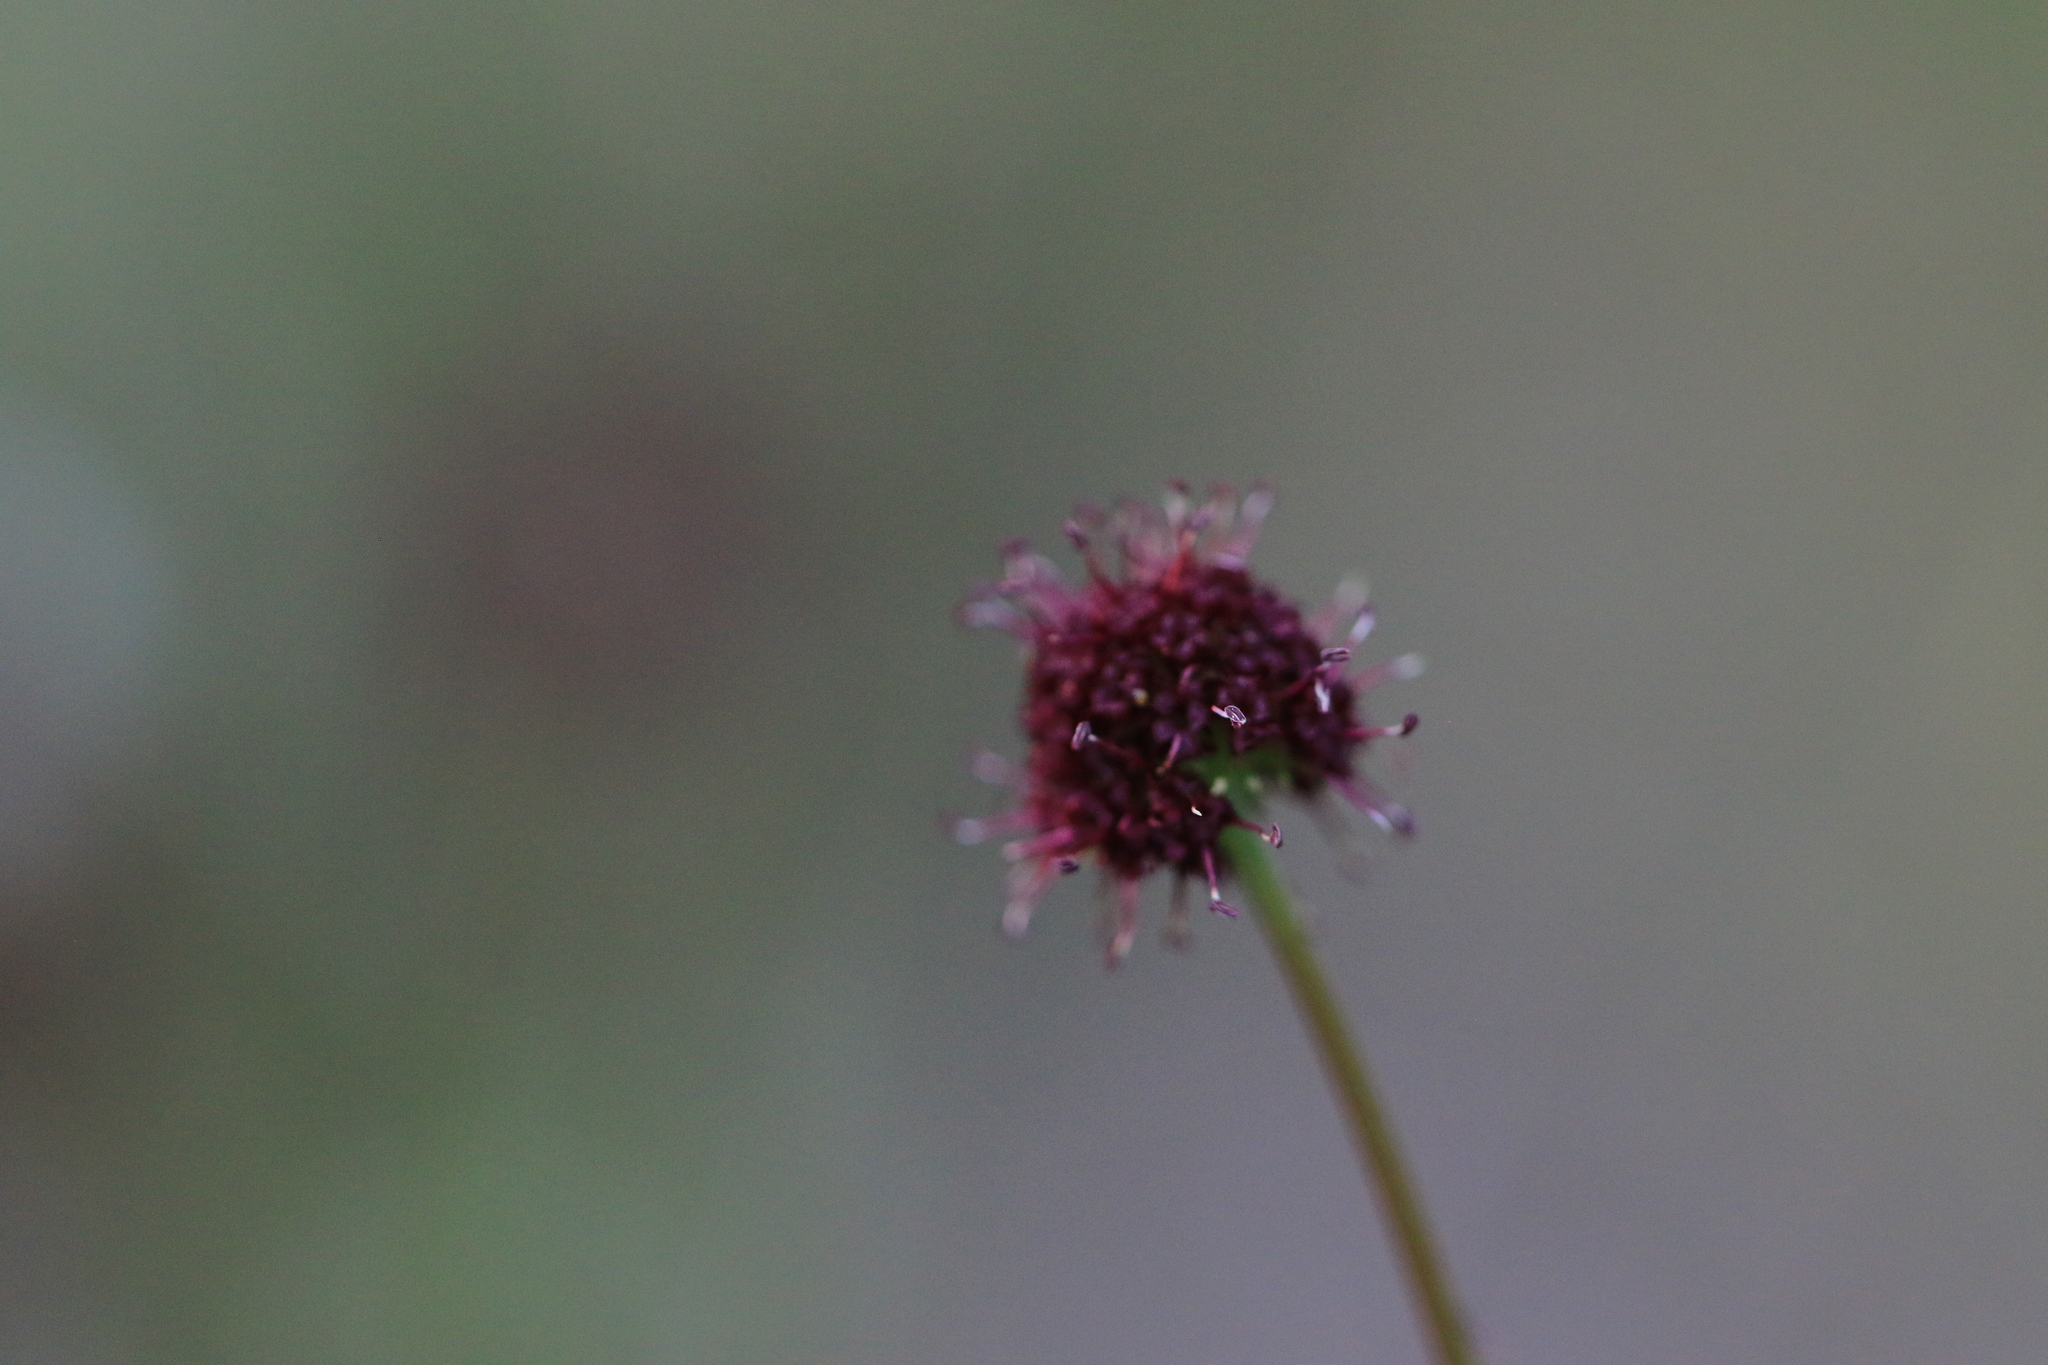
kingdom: Plantae
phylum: Tracheophyta
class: Magnoliopsida
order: Apiales
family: Apiaceae
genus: Sanicula
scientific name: Sanicula bipinnatifida
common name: Shoe-buttons
